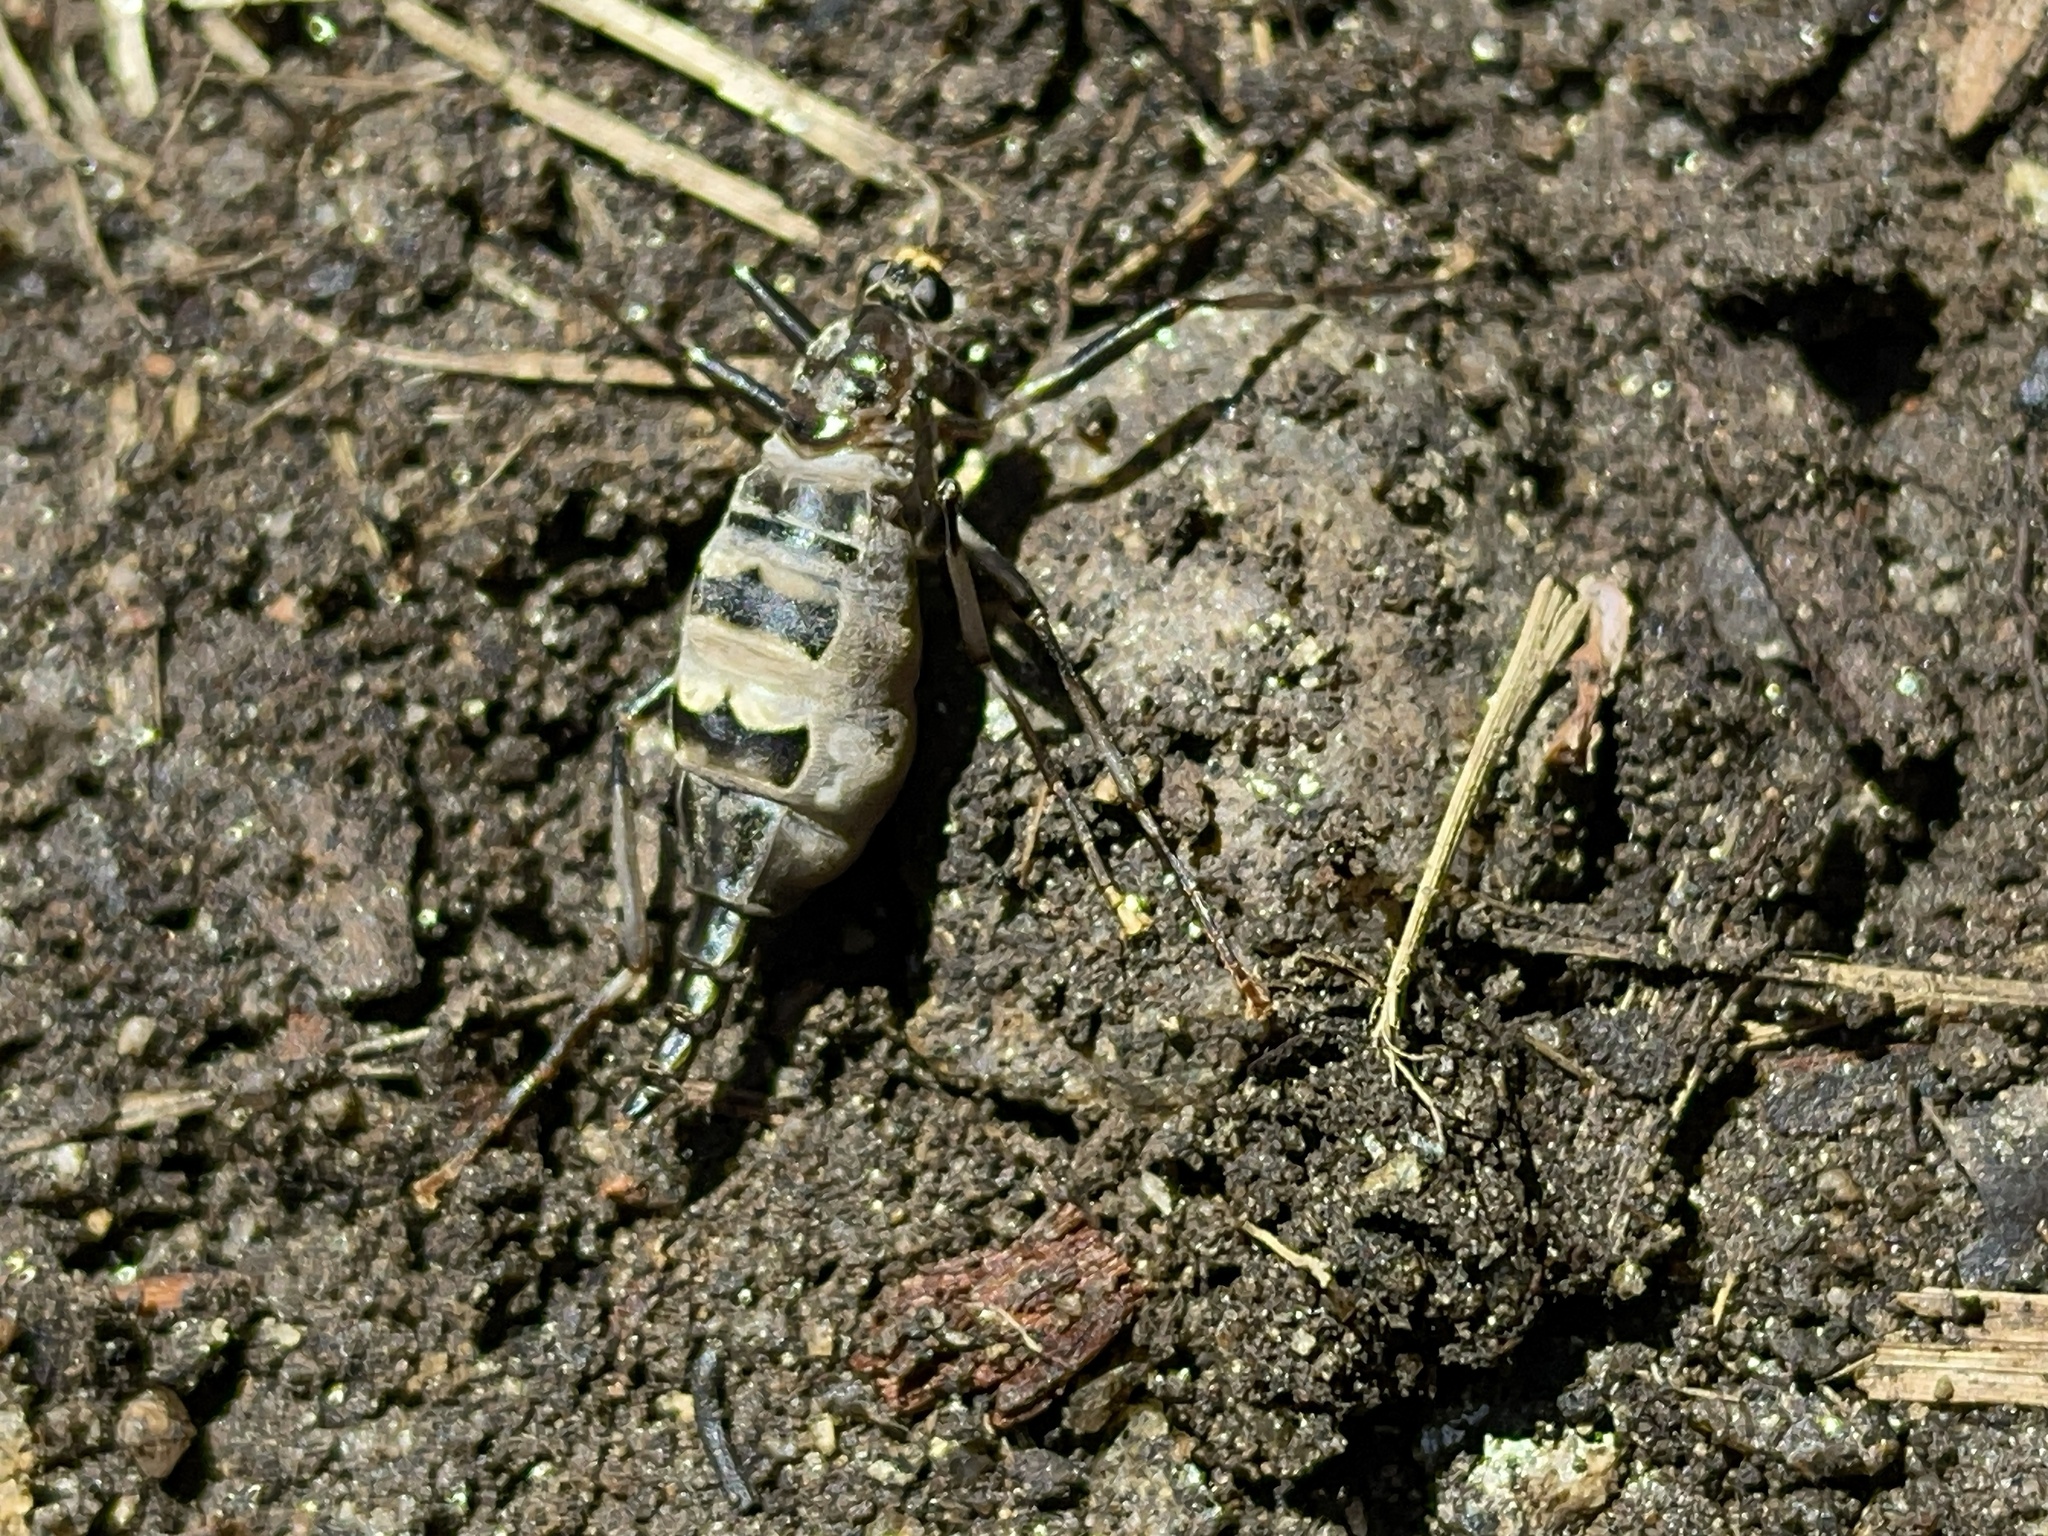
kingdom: Animalia
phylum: Arthropoda
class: Insecta
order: Diptera
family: Stratiomyidae
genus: Boreoides
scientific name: Boreoides subulatus
